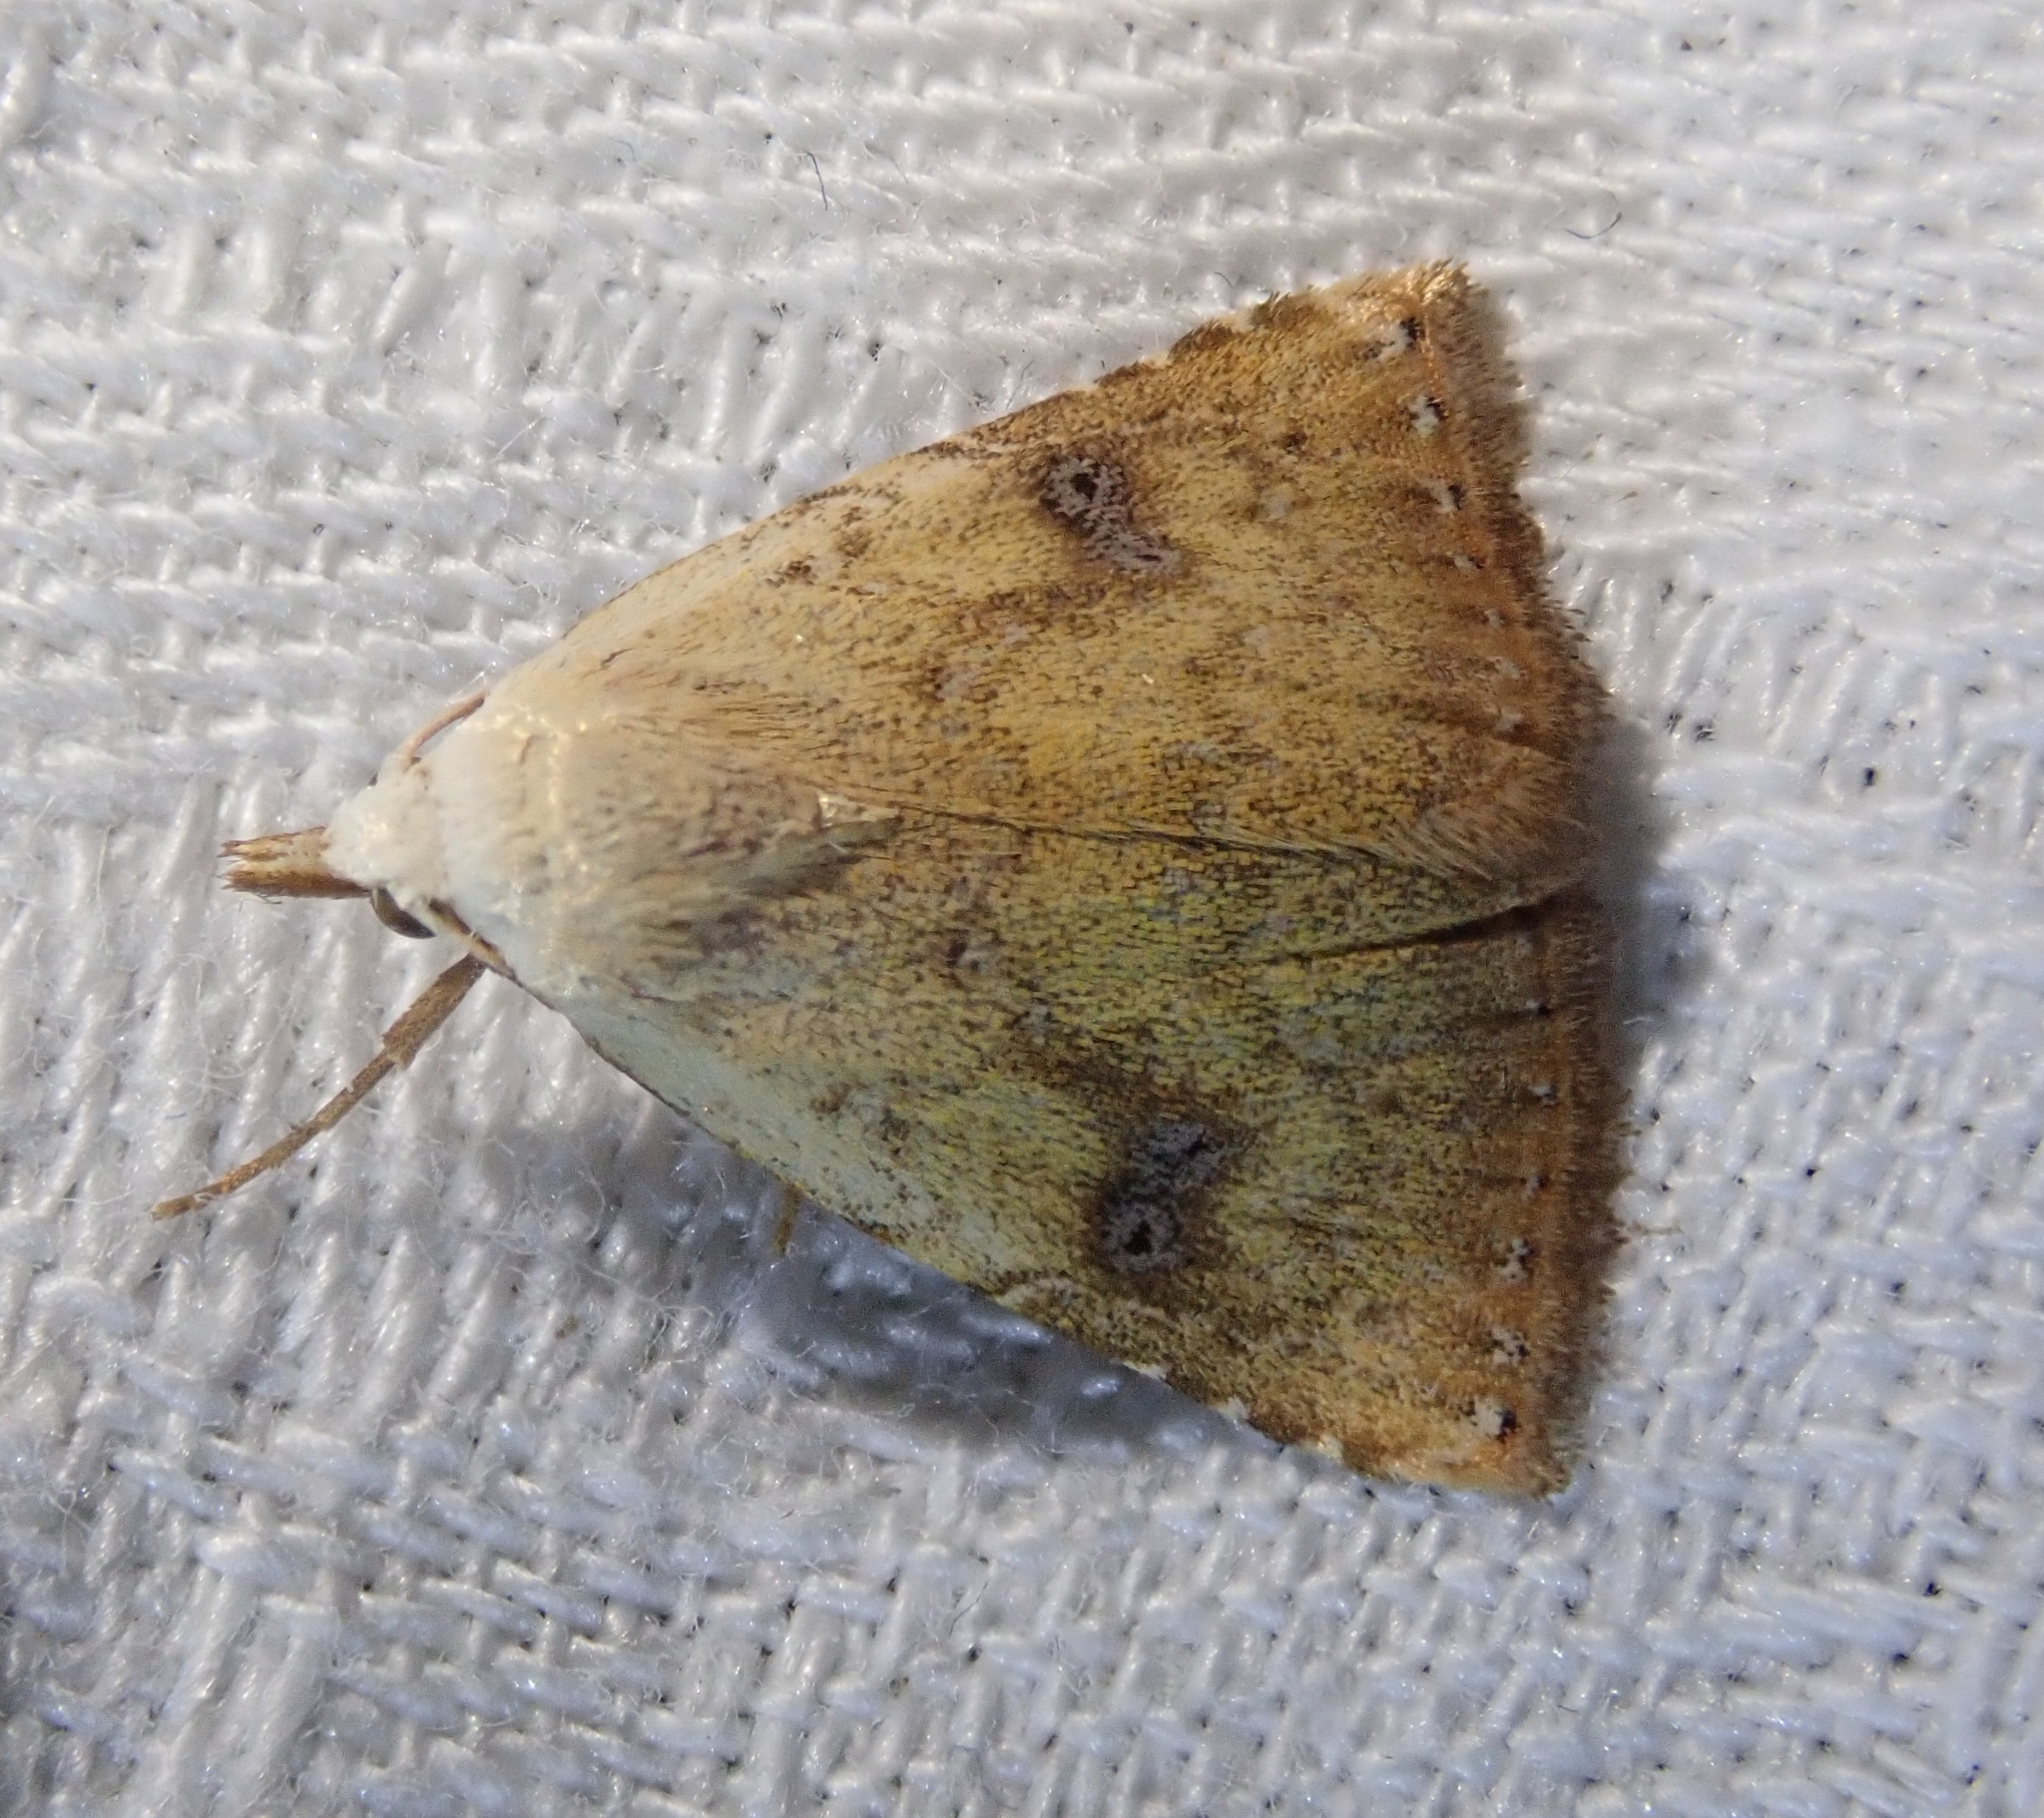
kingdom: Animalia
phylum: Arthropoda
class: Insecta
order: Lepidoptera
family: Erebidae
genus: Rivula
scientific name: Rivula sericealis
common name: Straw dot
